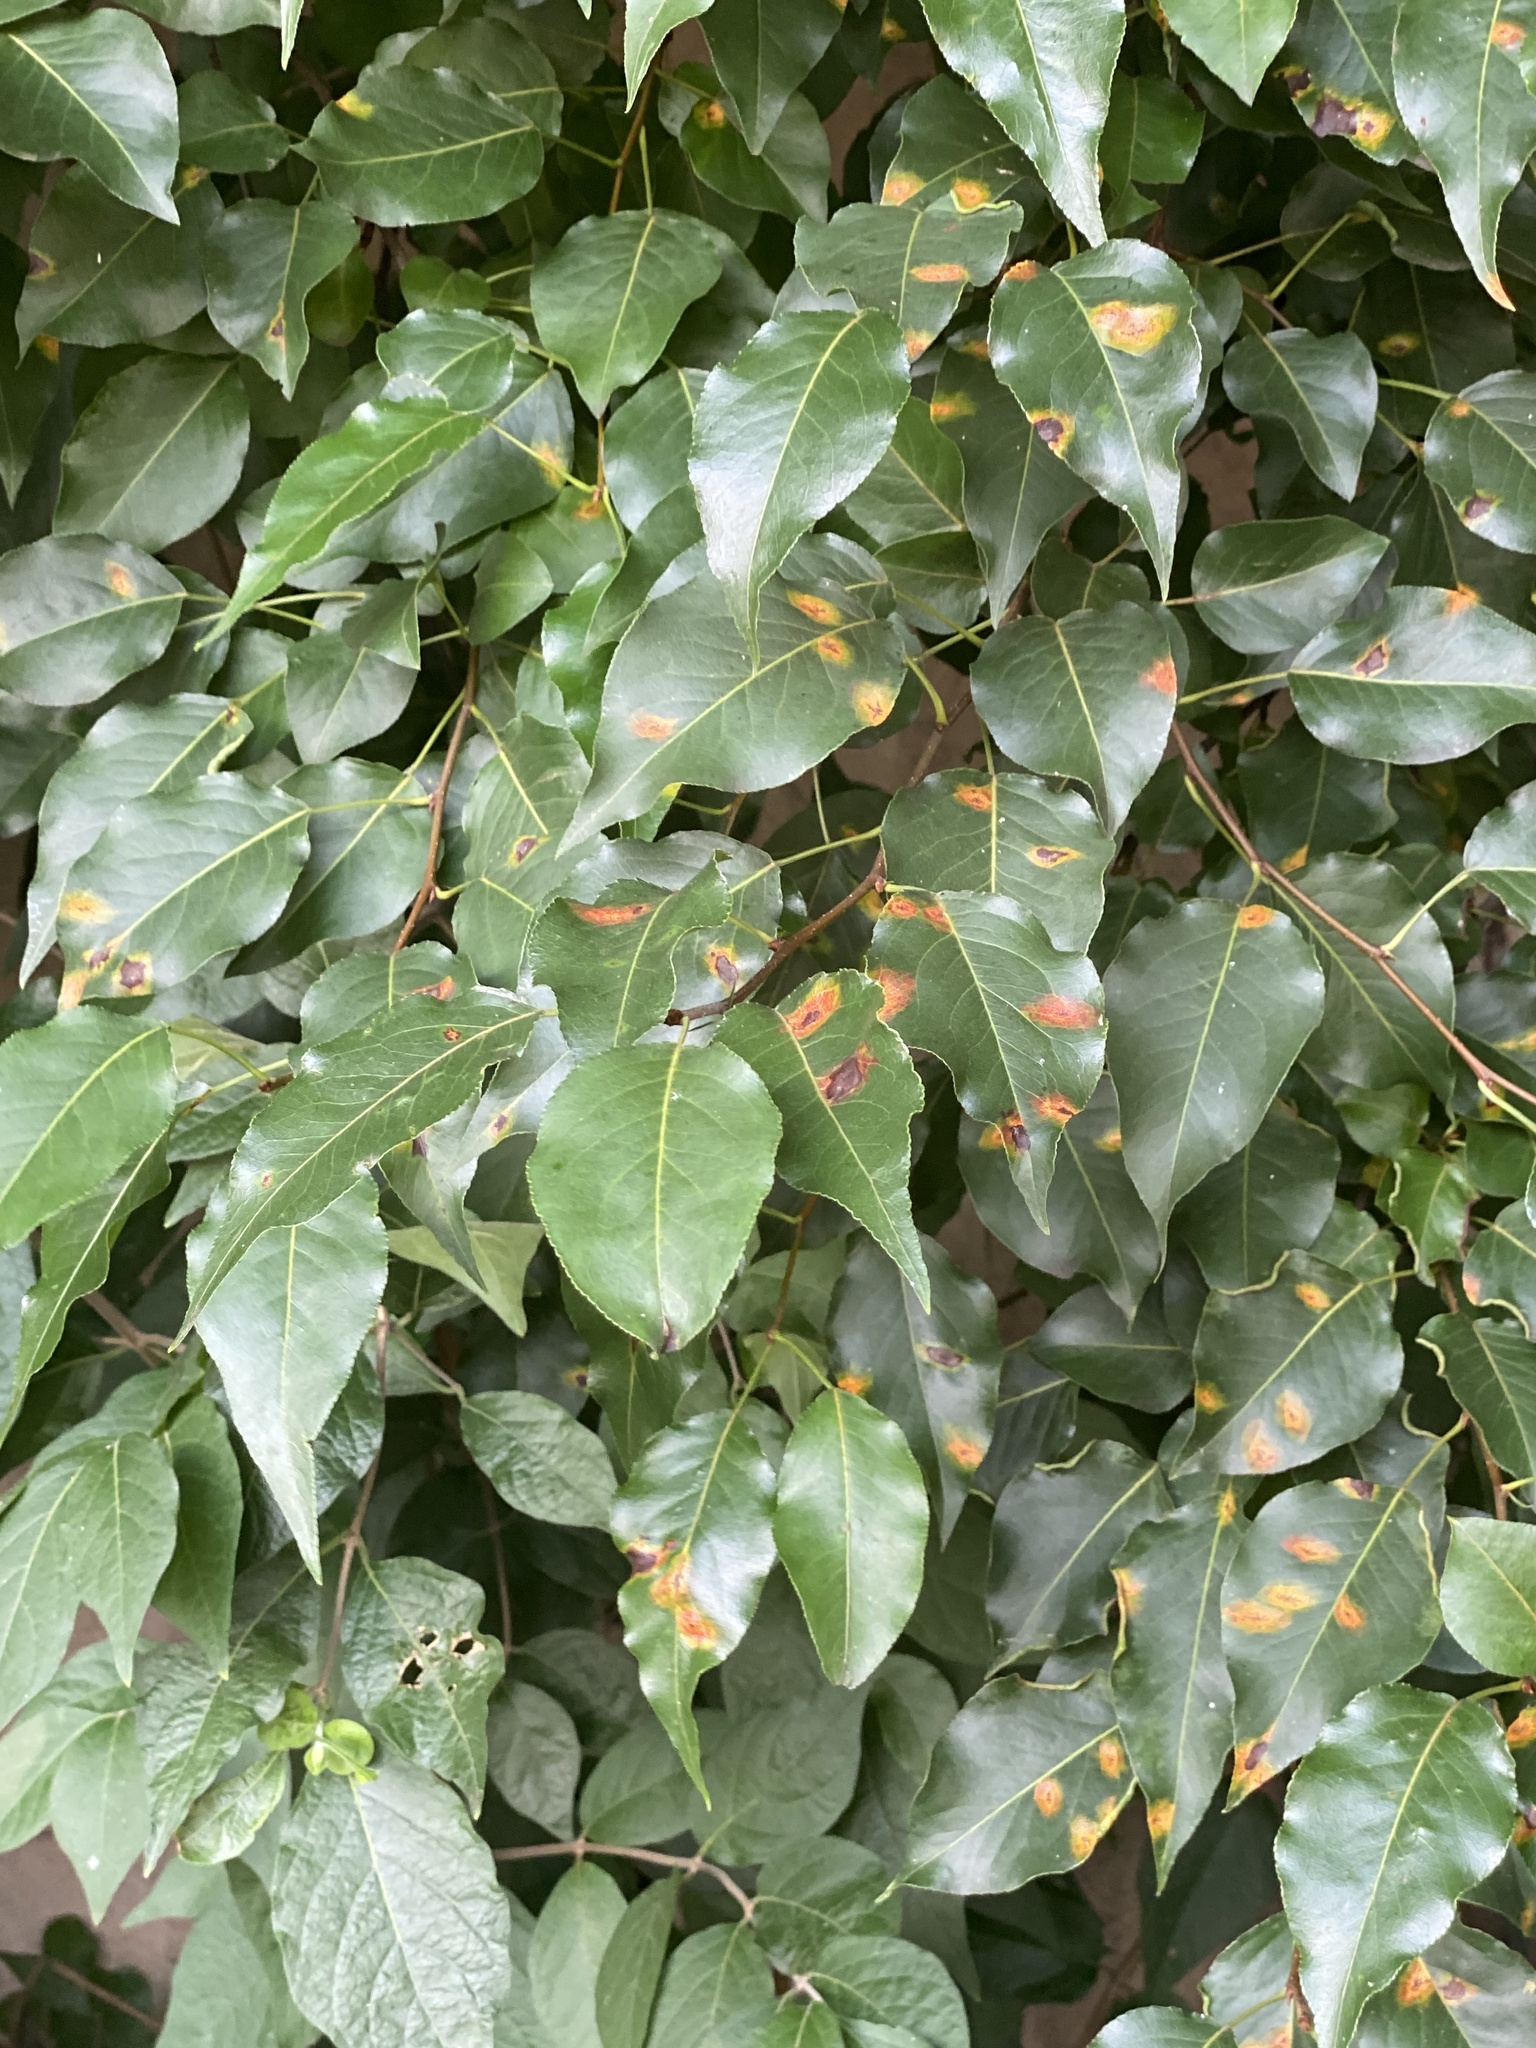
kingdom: Plantae
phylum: Tracheophyta
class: Magnoliopsida
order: Rosales
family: Rosaceae
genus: Pyrus
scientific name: Pyrus calleryana
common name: Callery pear
